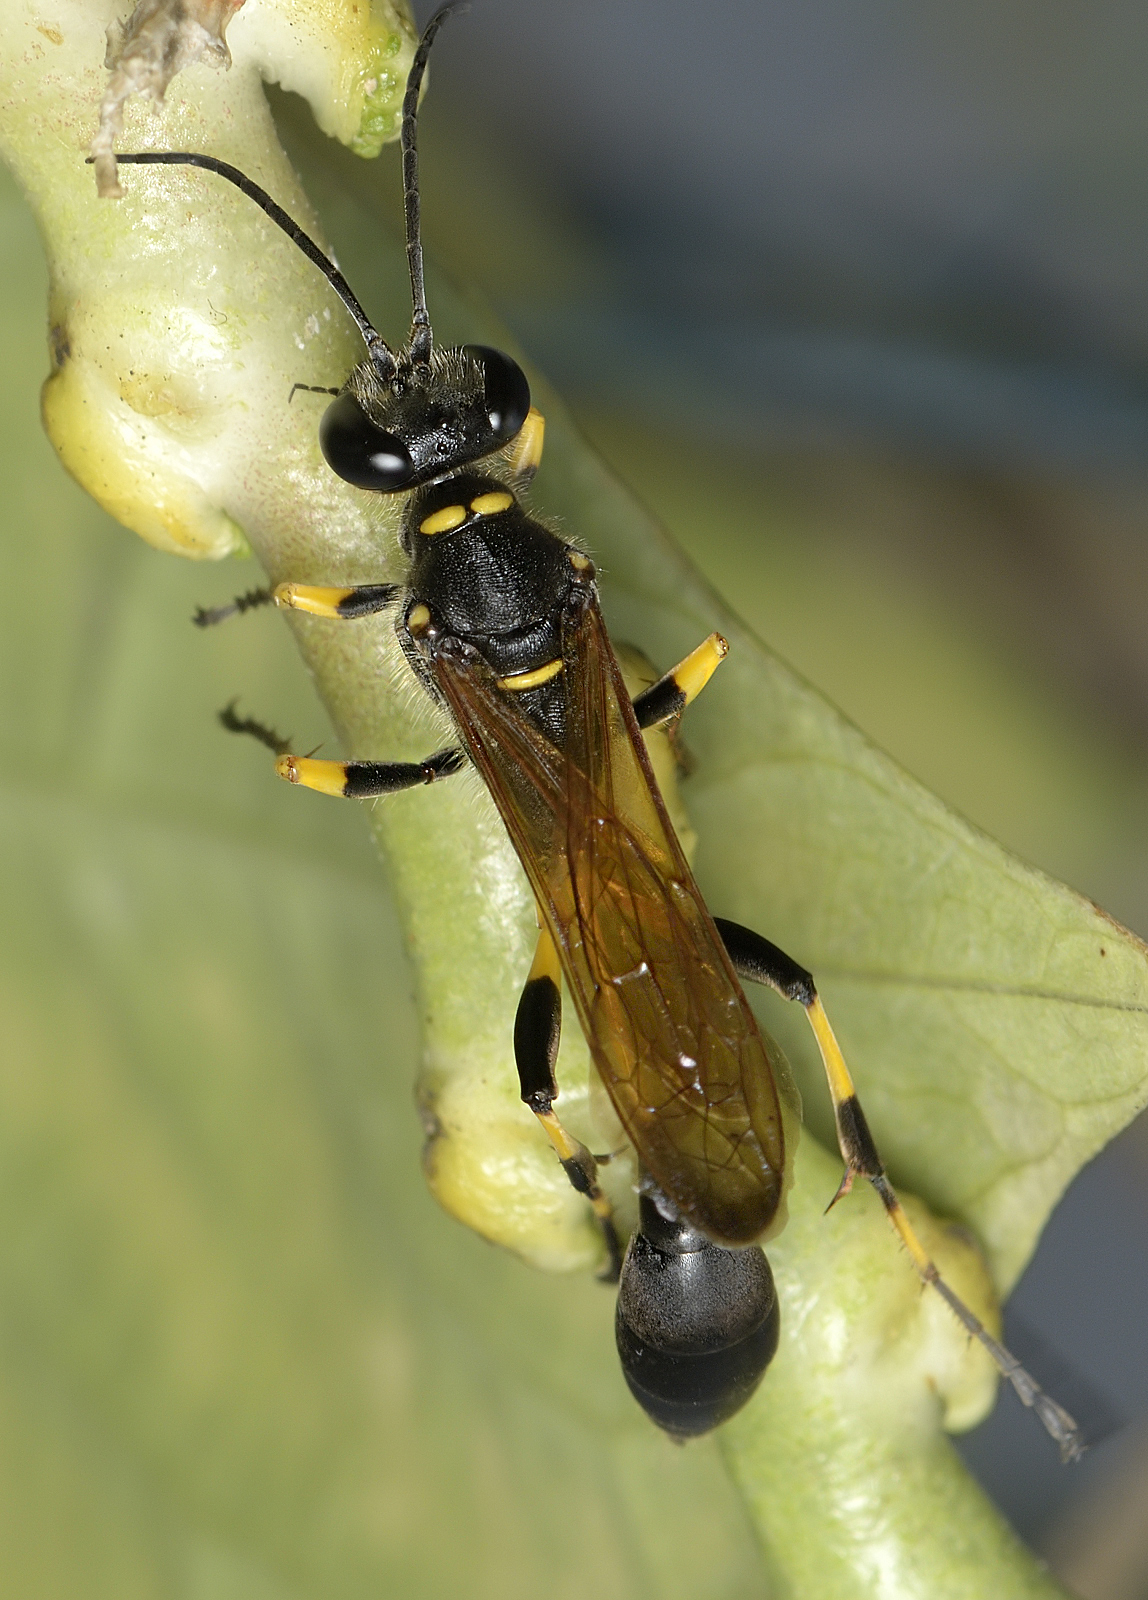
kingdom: Animalia
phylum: Arthropoda
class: Insecta
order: Hymenoptera
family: Sphecidae
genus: Sceliphron
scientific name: Sceliphron madraspatanum
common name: Mud dauber
